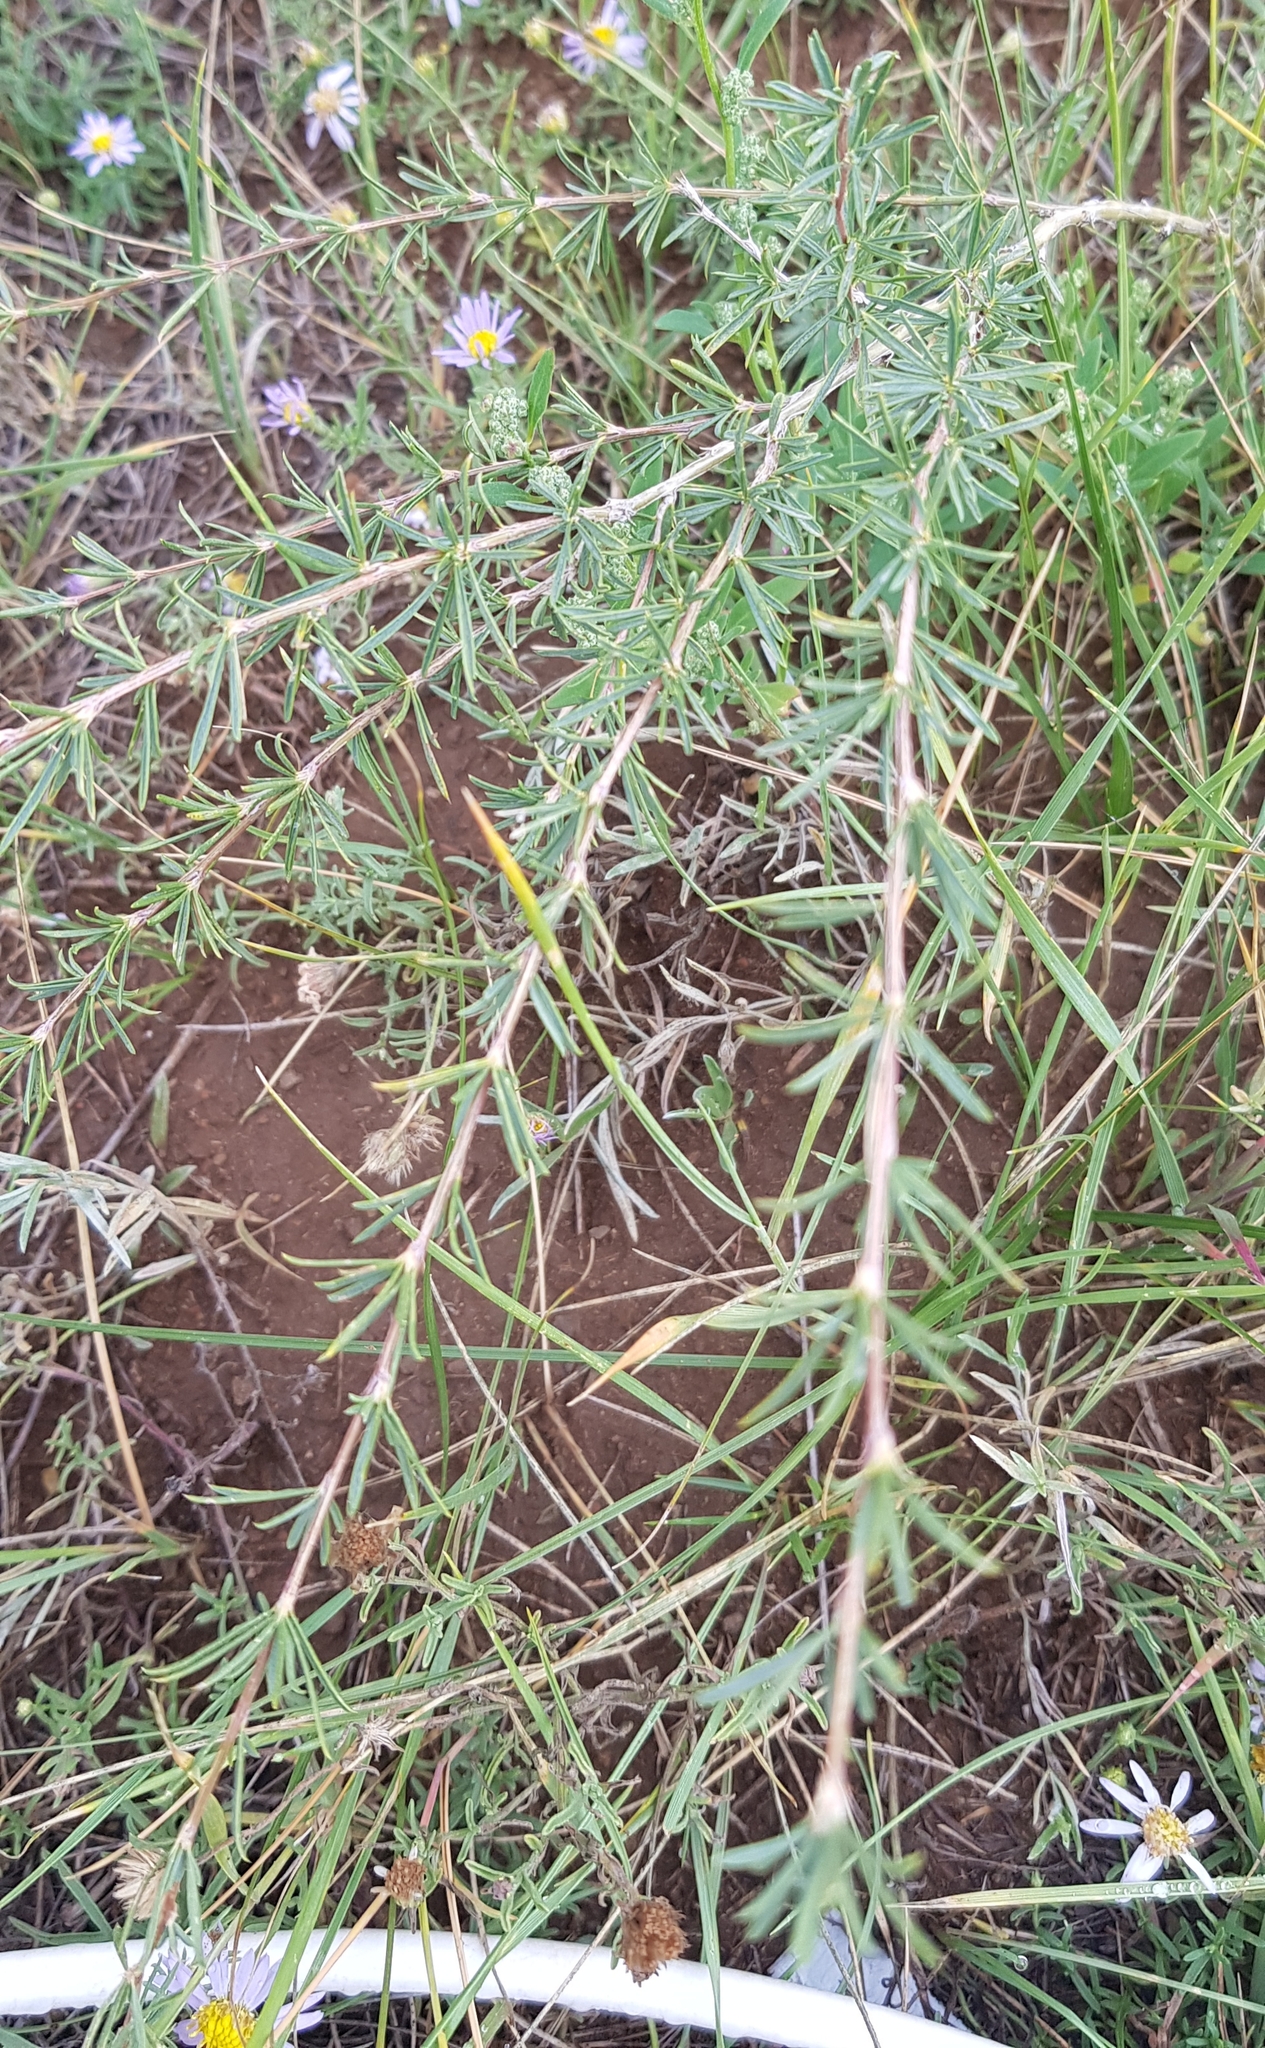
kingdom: Plantae
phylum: Tracheophyta
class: Magnoliopsida
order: Fabales
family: Fabaceae
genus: Caragana
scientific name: Caragana stenophylla
